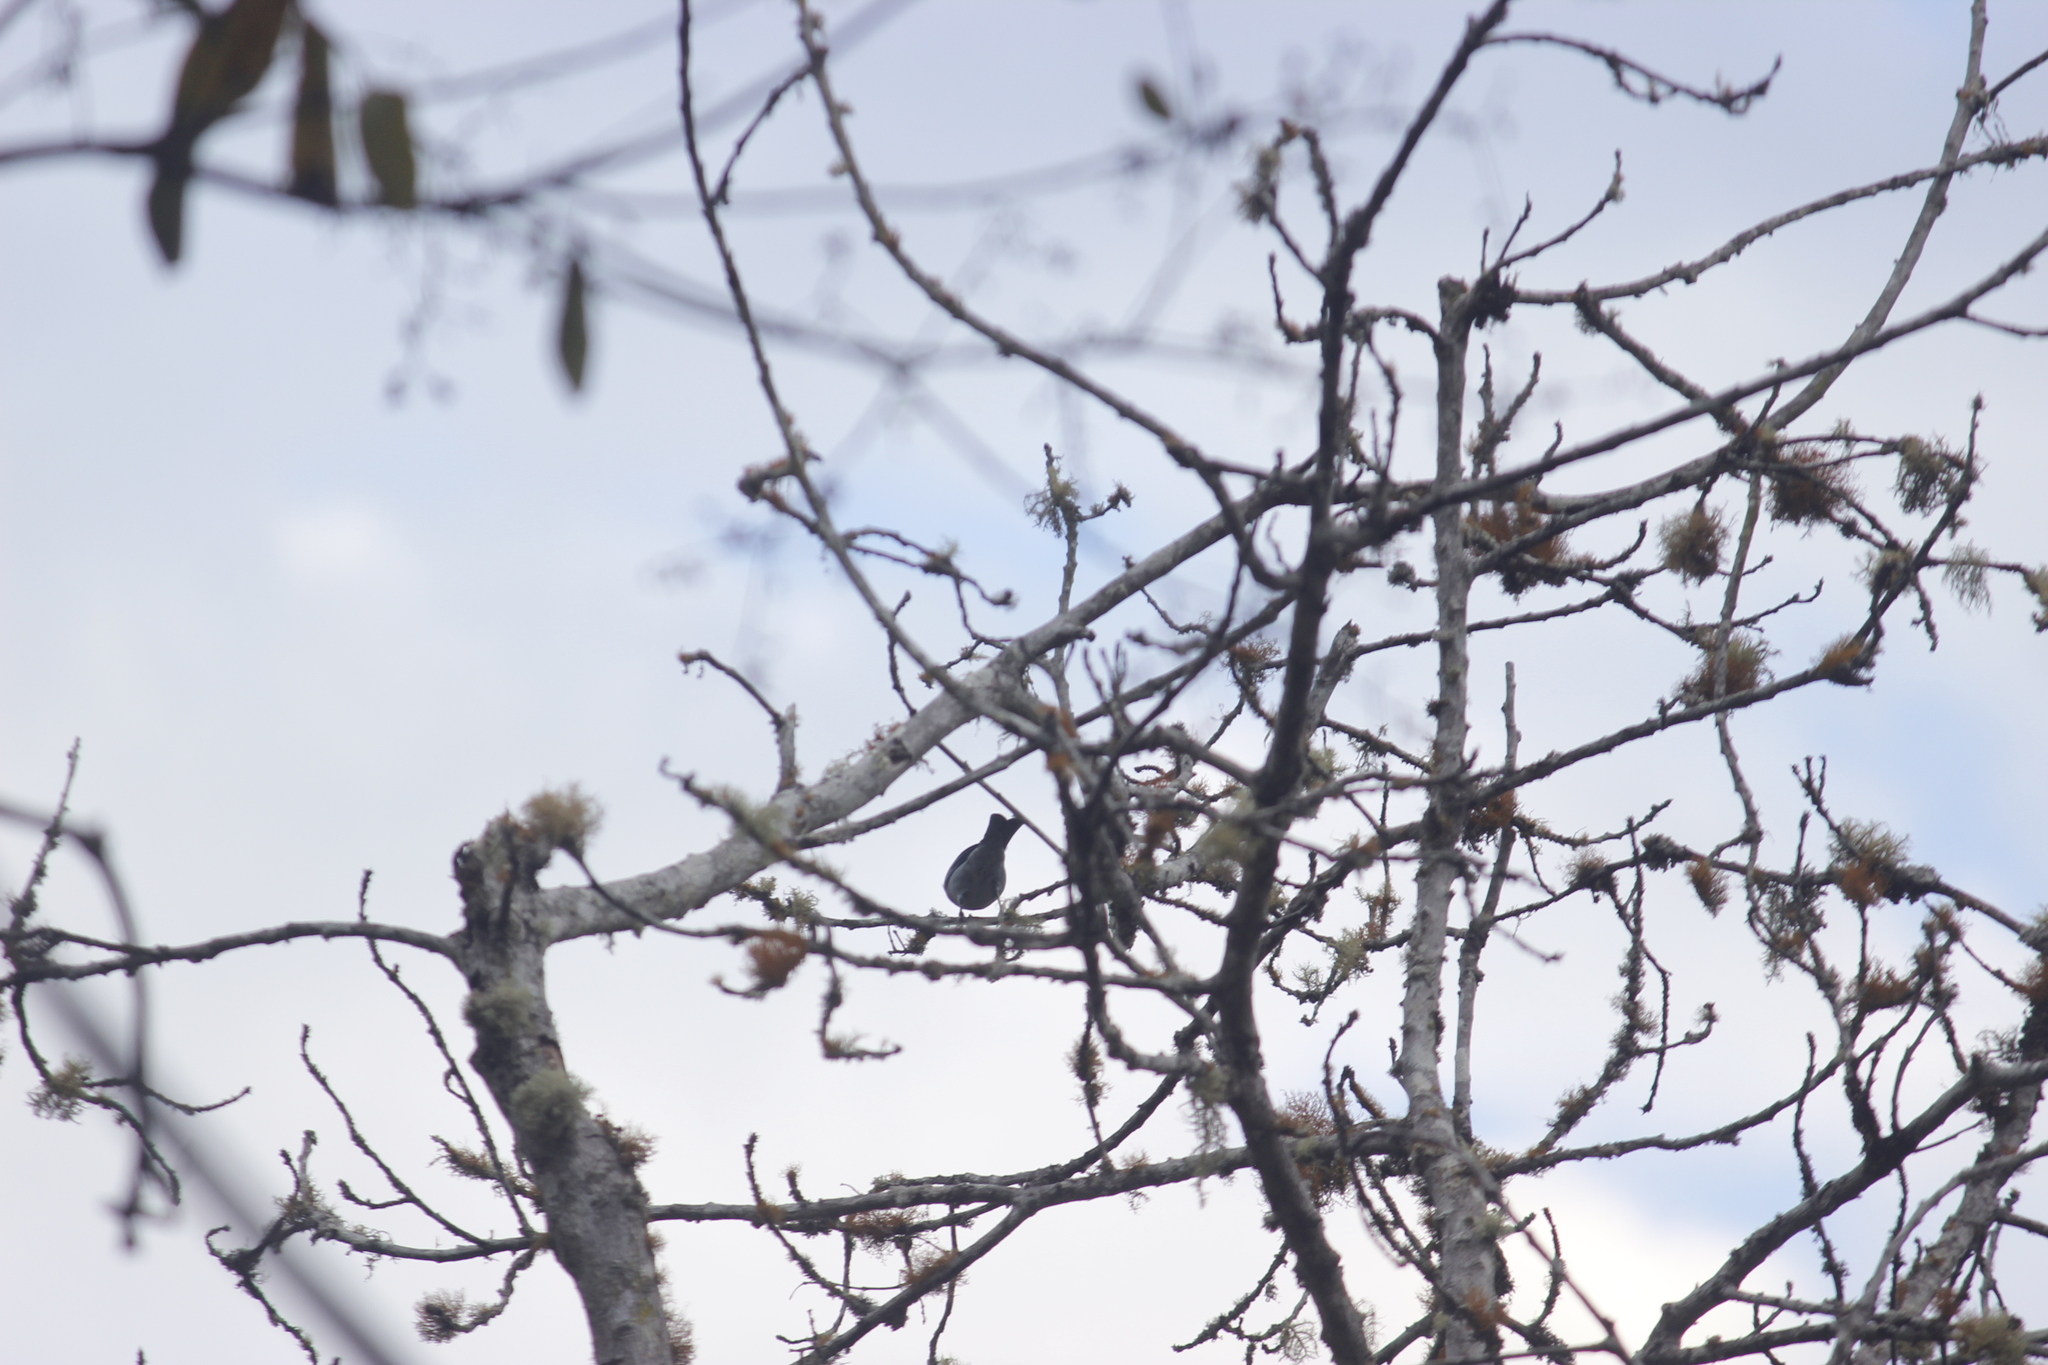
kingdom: Animalia
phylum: Chordata
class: Aves
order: Passeriformes
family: Thraupidae
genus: Thraupis
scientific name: Thraupis episcopus
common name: Blue-grey tanager
